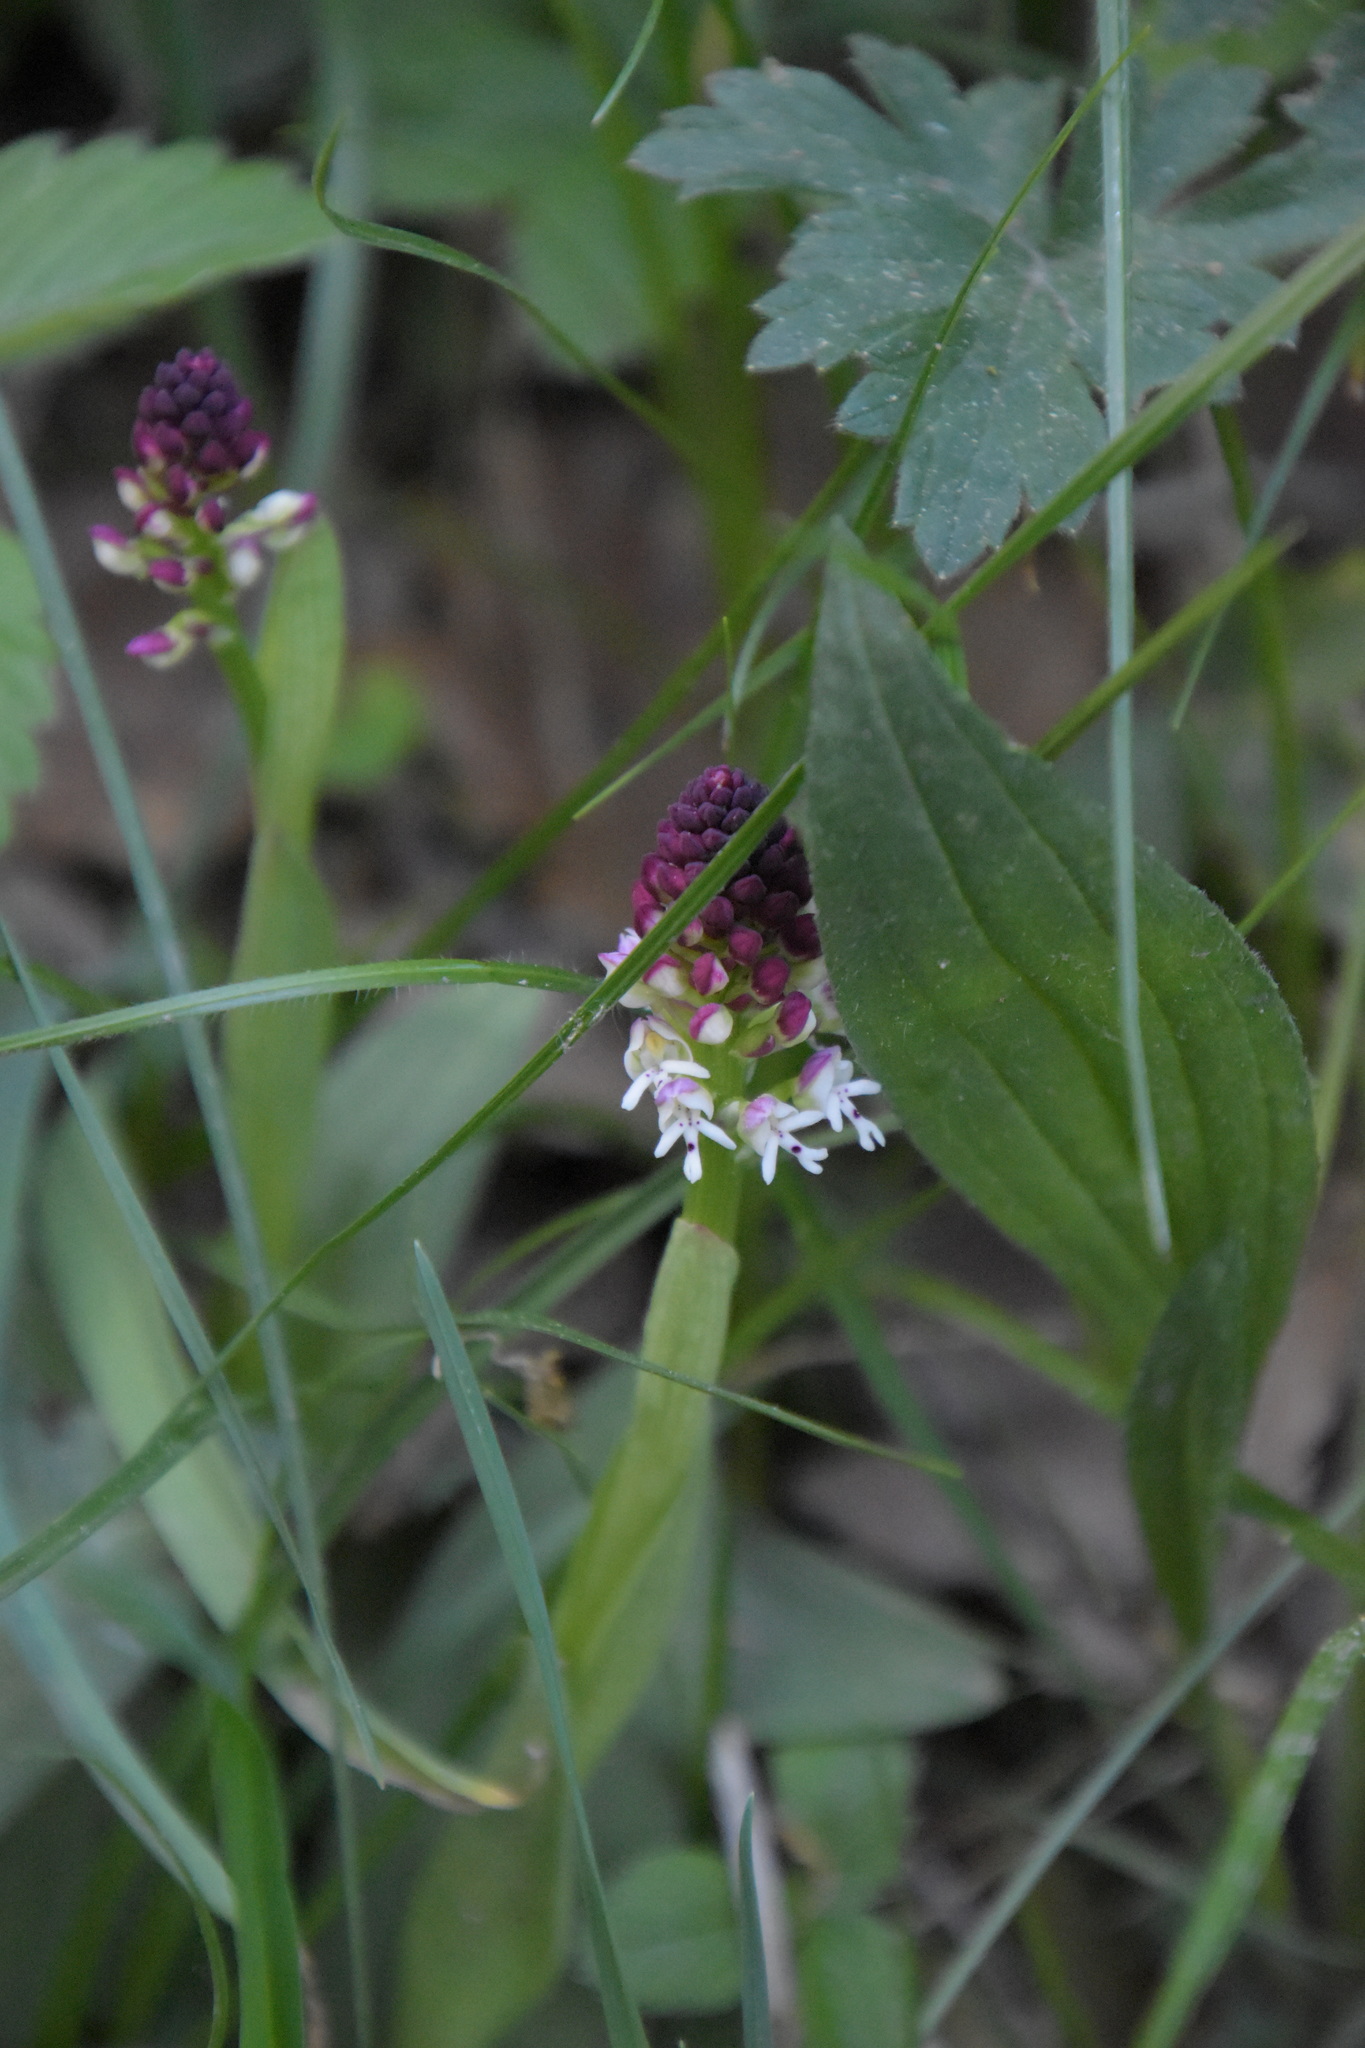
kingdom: Plantae
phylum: Tracheophyta
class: Liliopsida
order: Asparagales
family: Orchidaceae
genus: Neotinea
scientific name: Neotinea ustulata
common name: Burnt orchid
